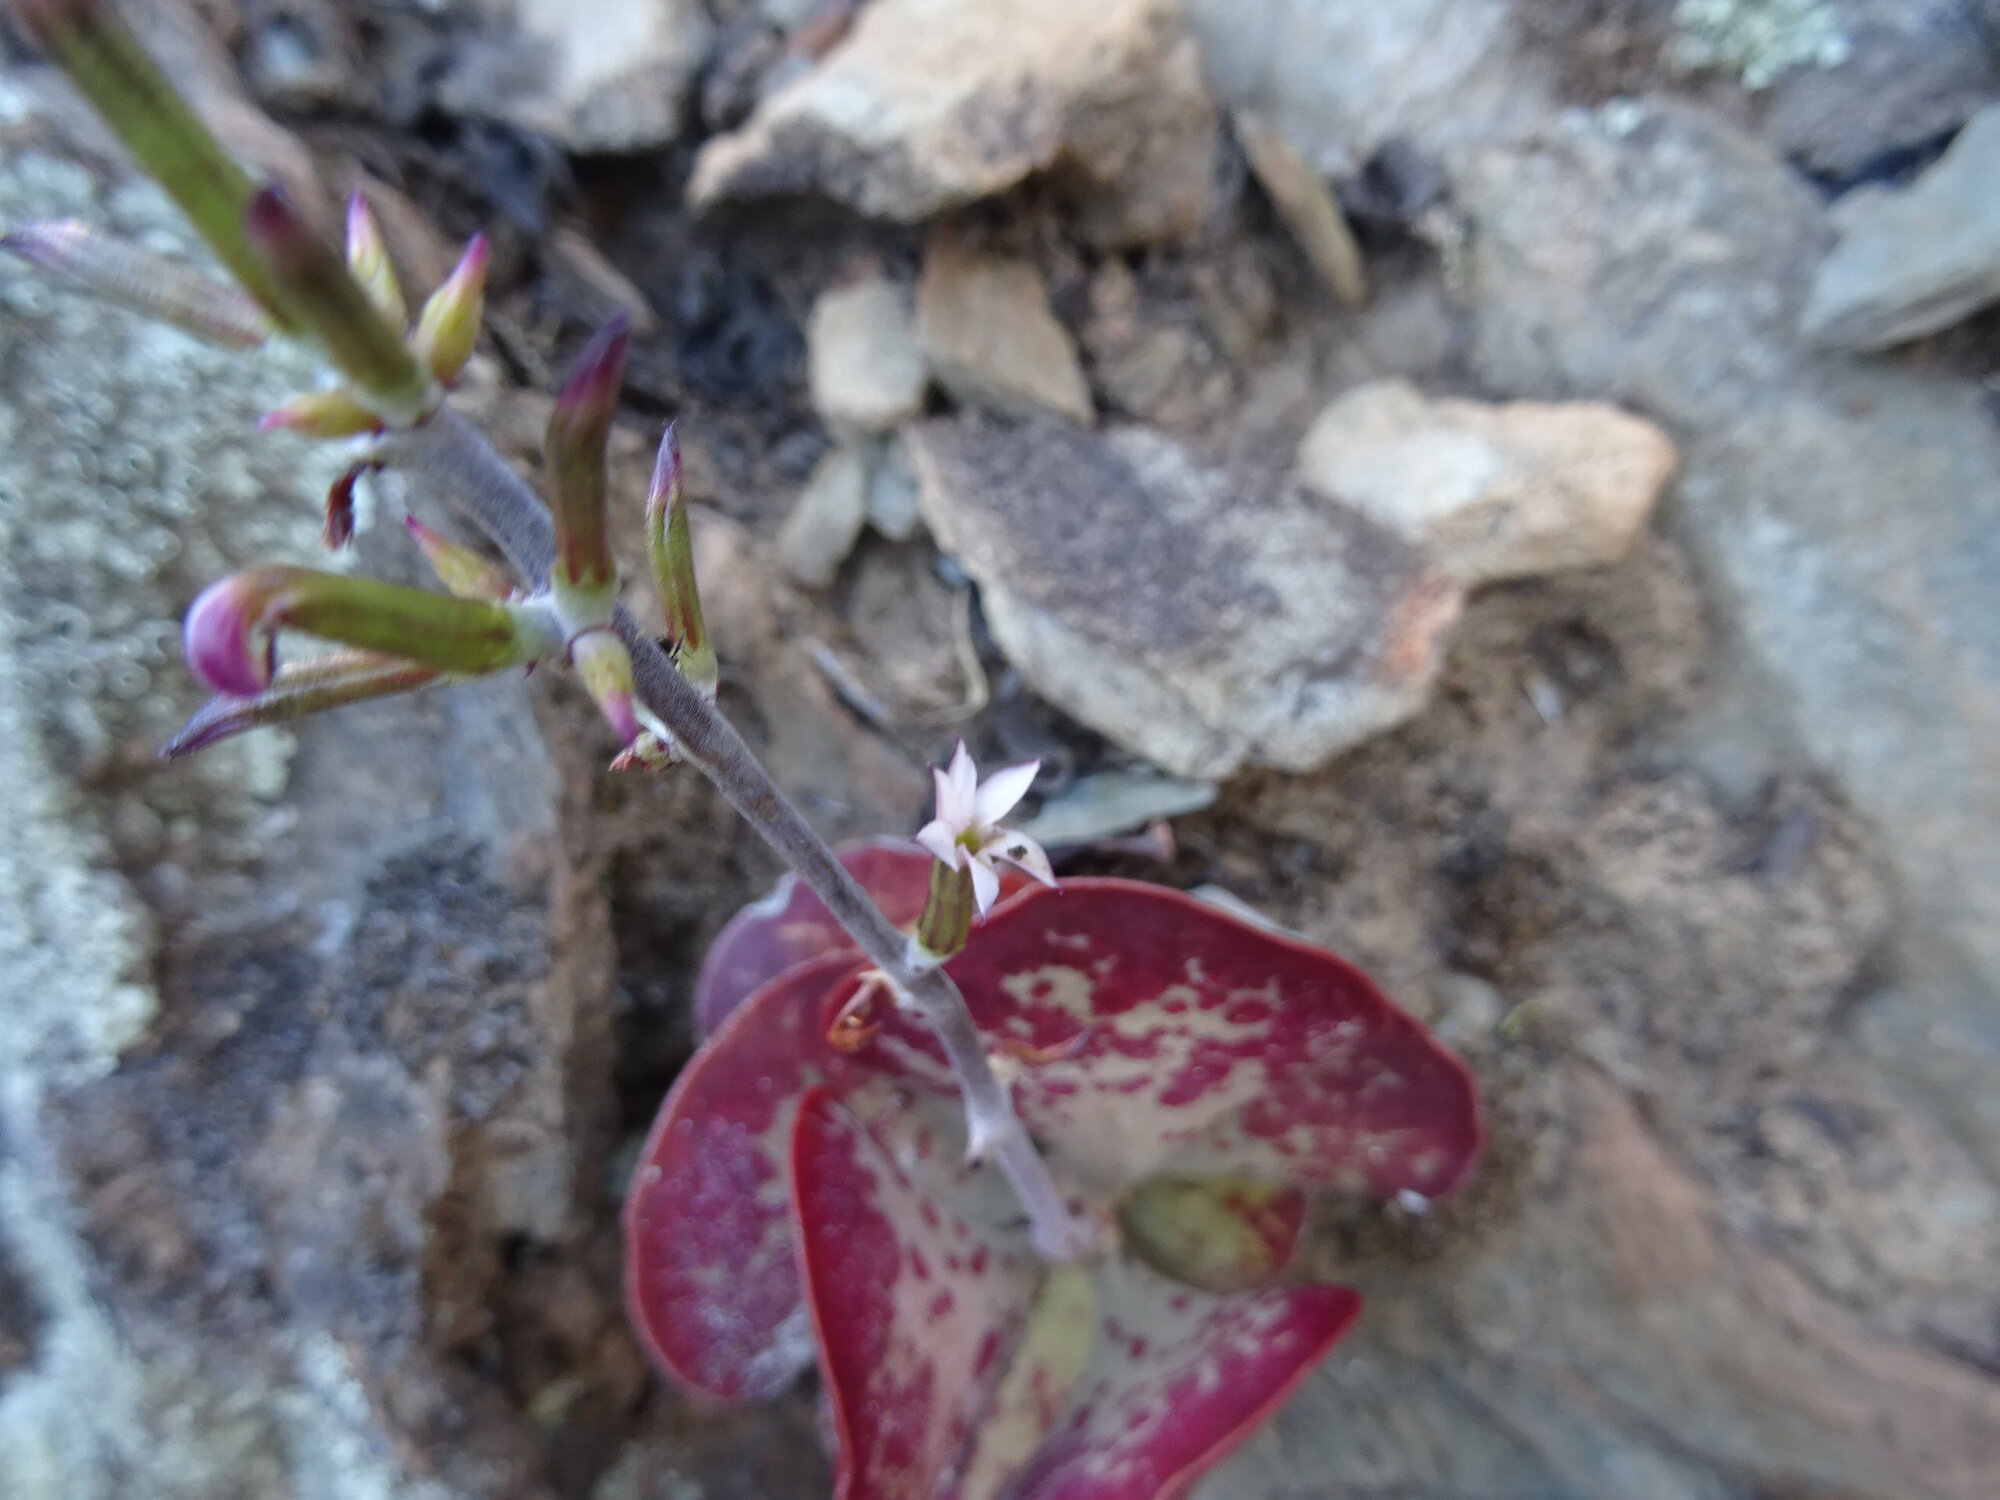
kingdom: Plantae
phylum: Tracheophyta
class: Magnoliopsida
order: Saxifragales
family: Crassulaceae
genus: Adromischus
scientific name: Adromischus triflorus
